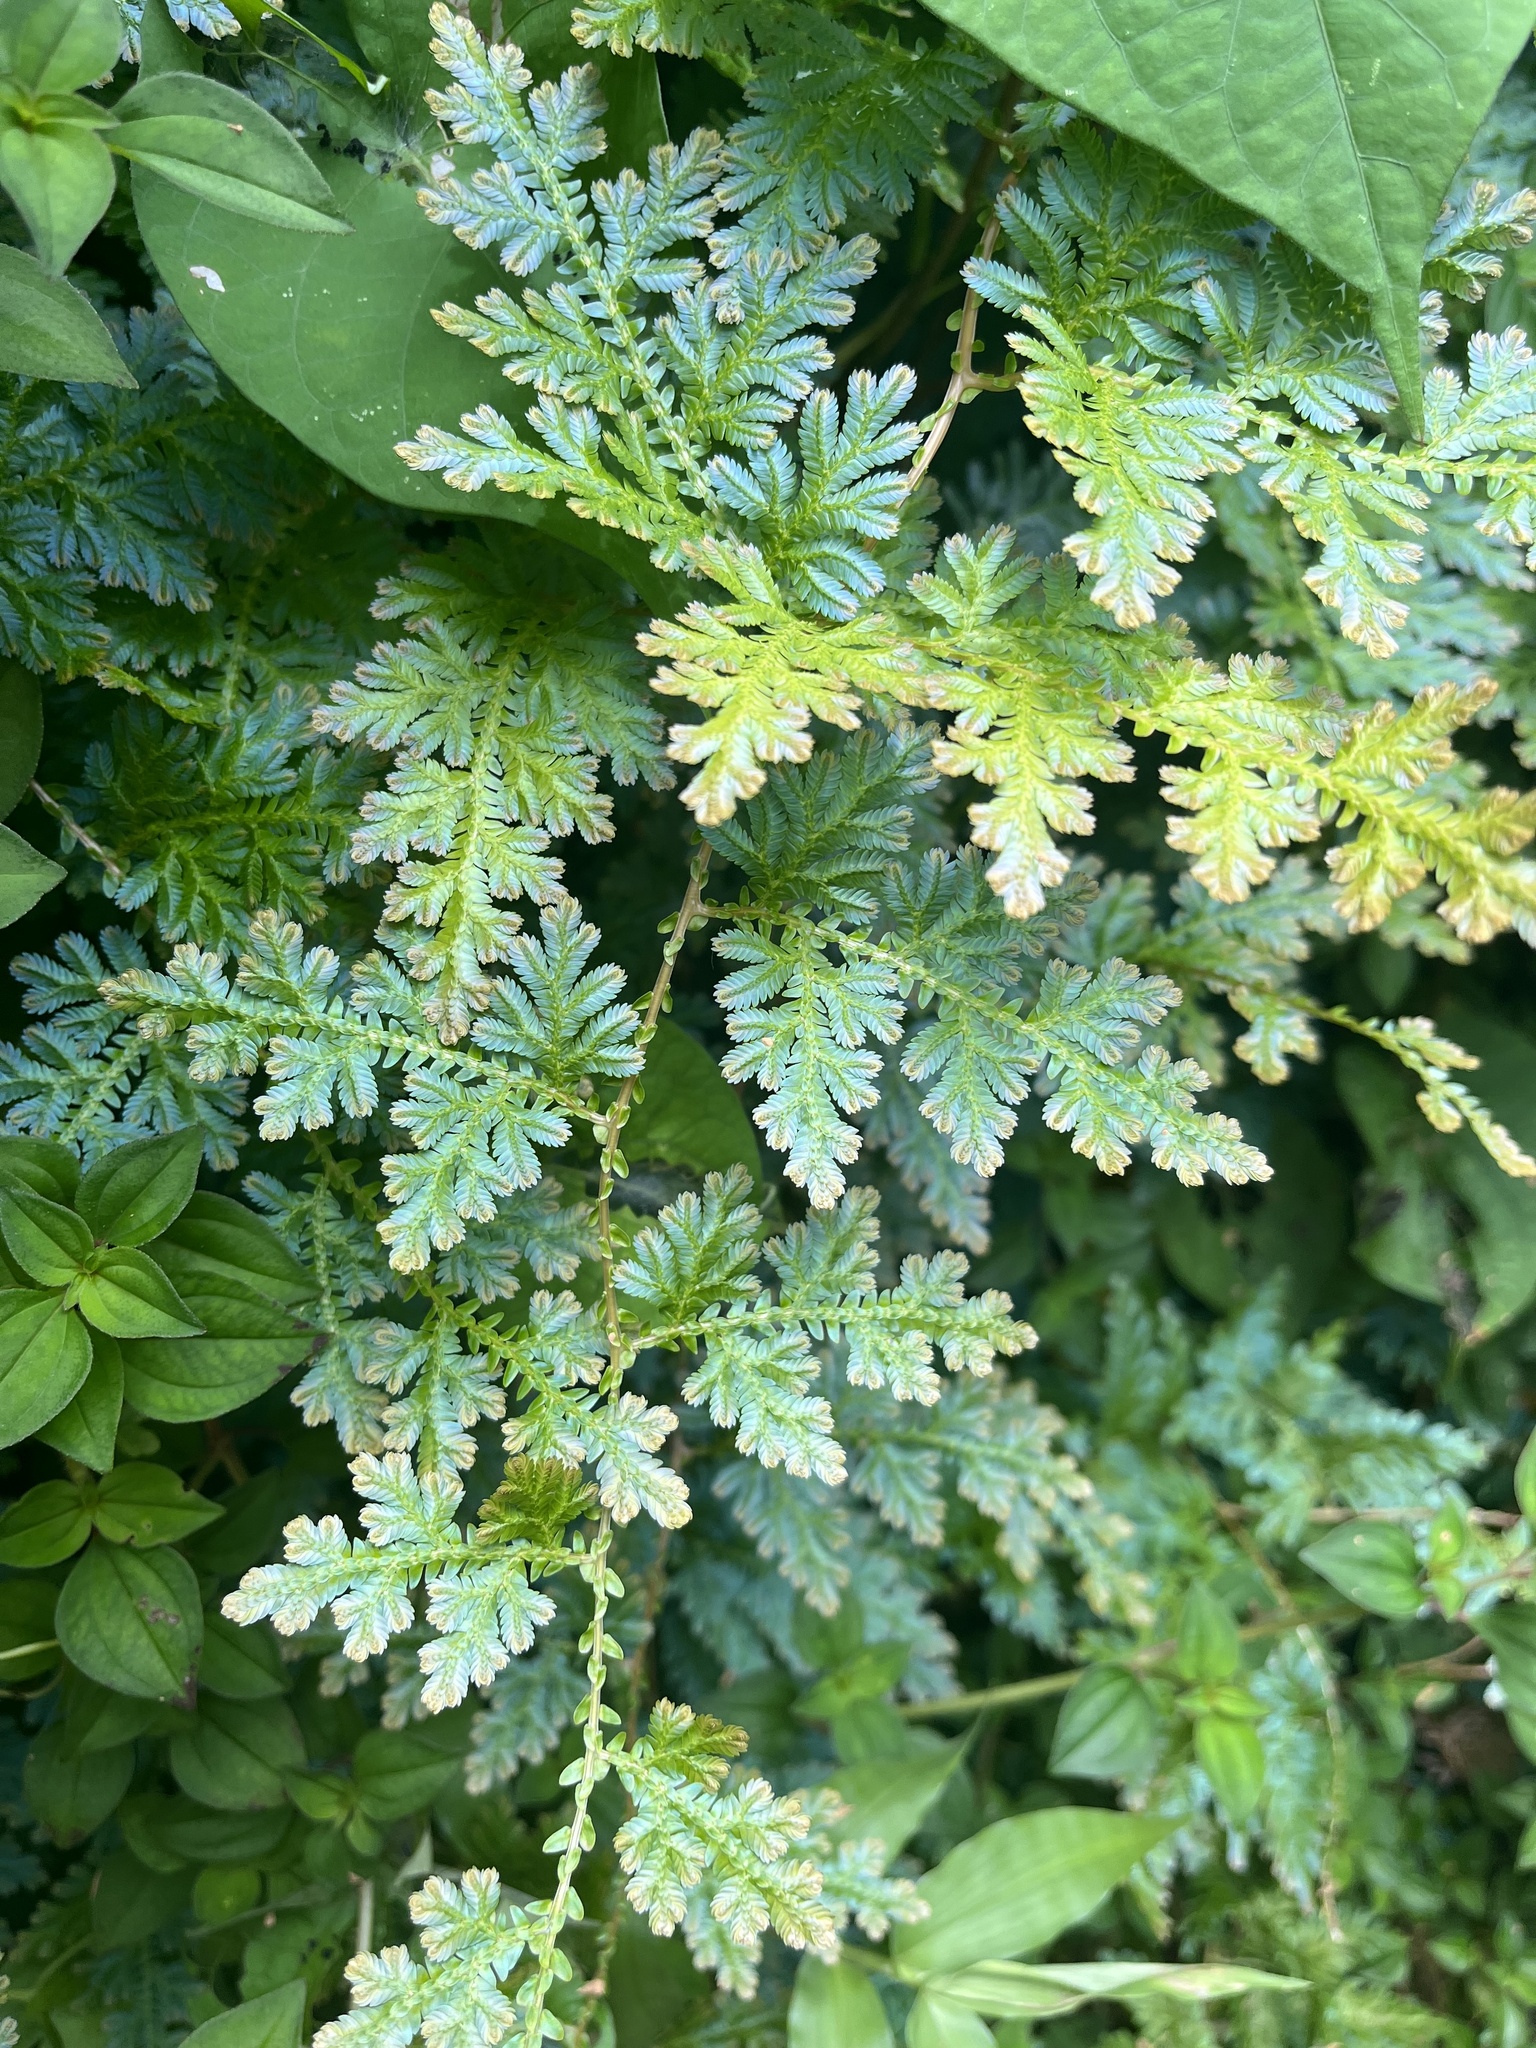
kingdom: Plantae
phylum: Tracheophyta
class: Lycopodiopsida
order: Selaginellales
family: Selaginellaceae
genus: Selaginella
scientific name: Selaginella willdenowii
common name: Willdenow's spikemoss
